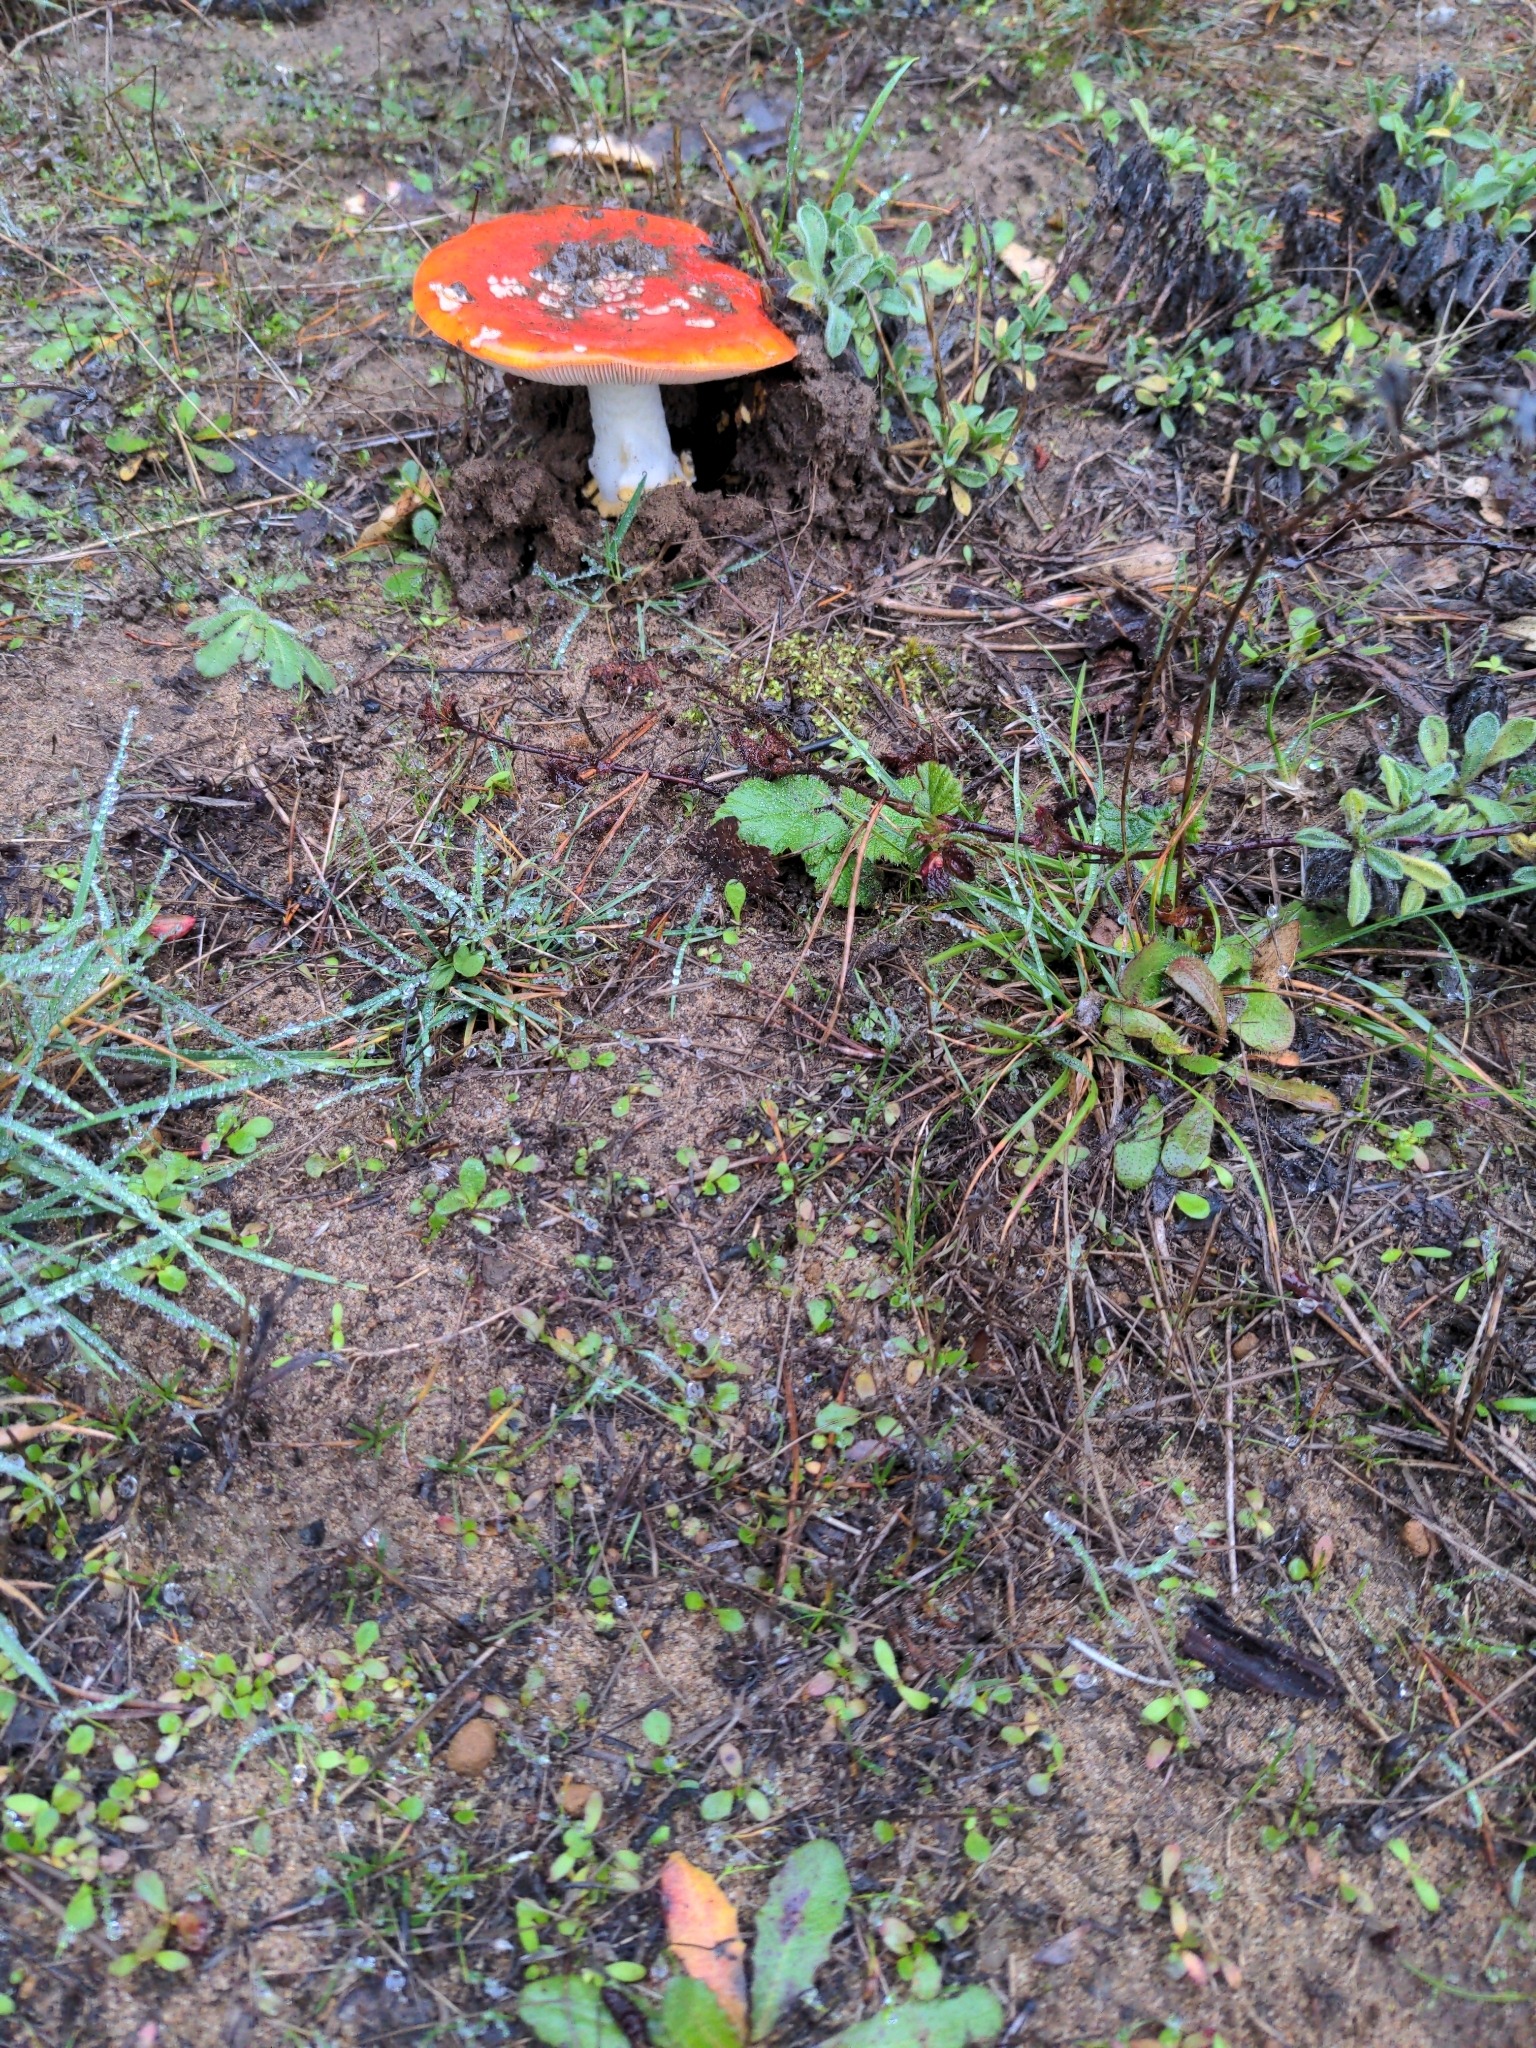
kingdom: Fungi
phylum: Basidiomycota
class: Agaricomycetes
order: Agaricales
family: Amanitaceae
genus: Amanita
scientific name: Amanita muscaria
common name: Fly agaric
